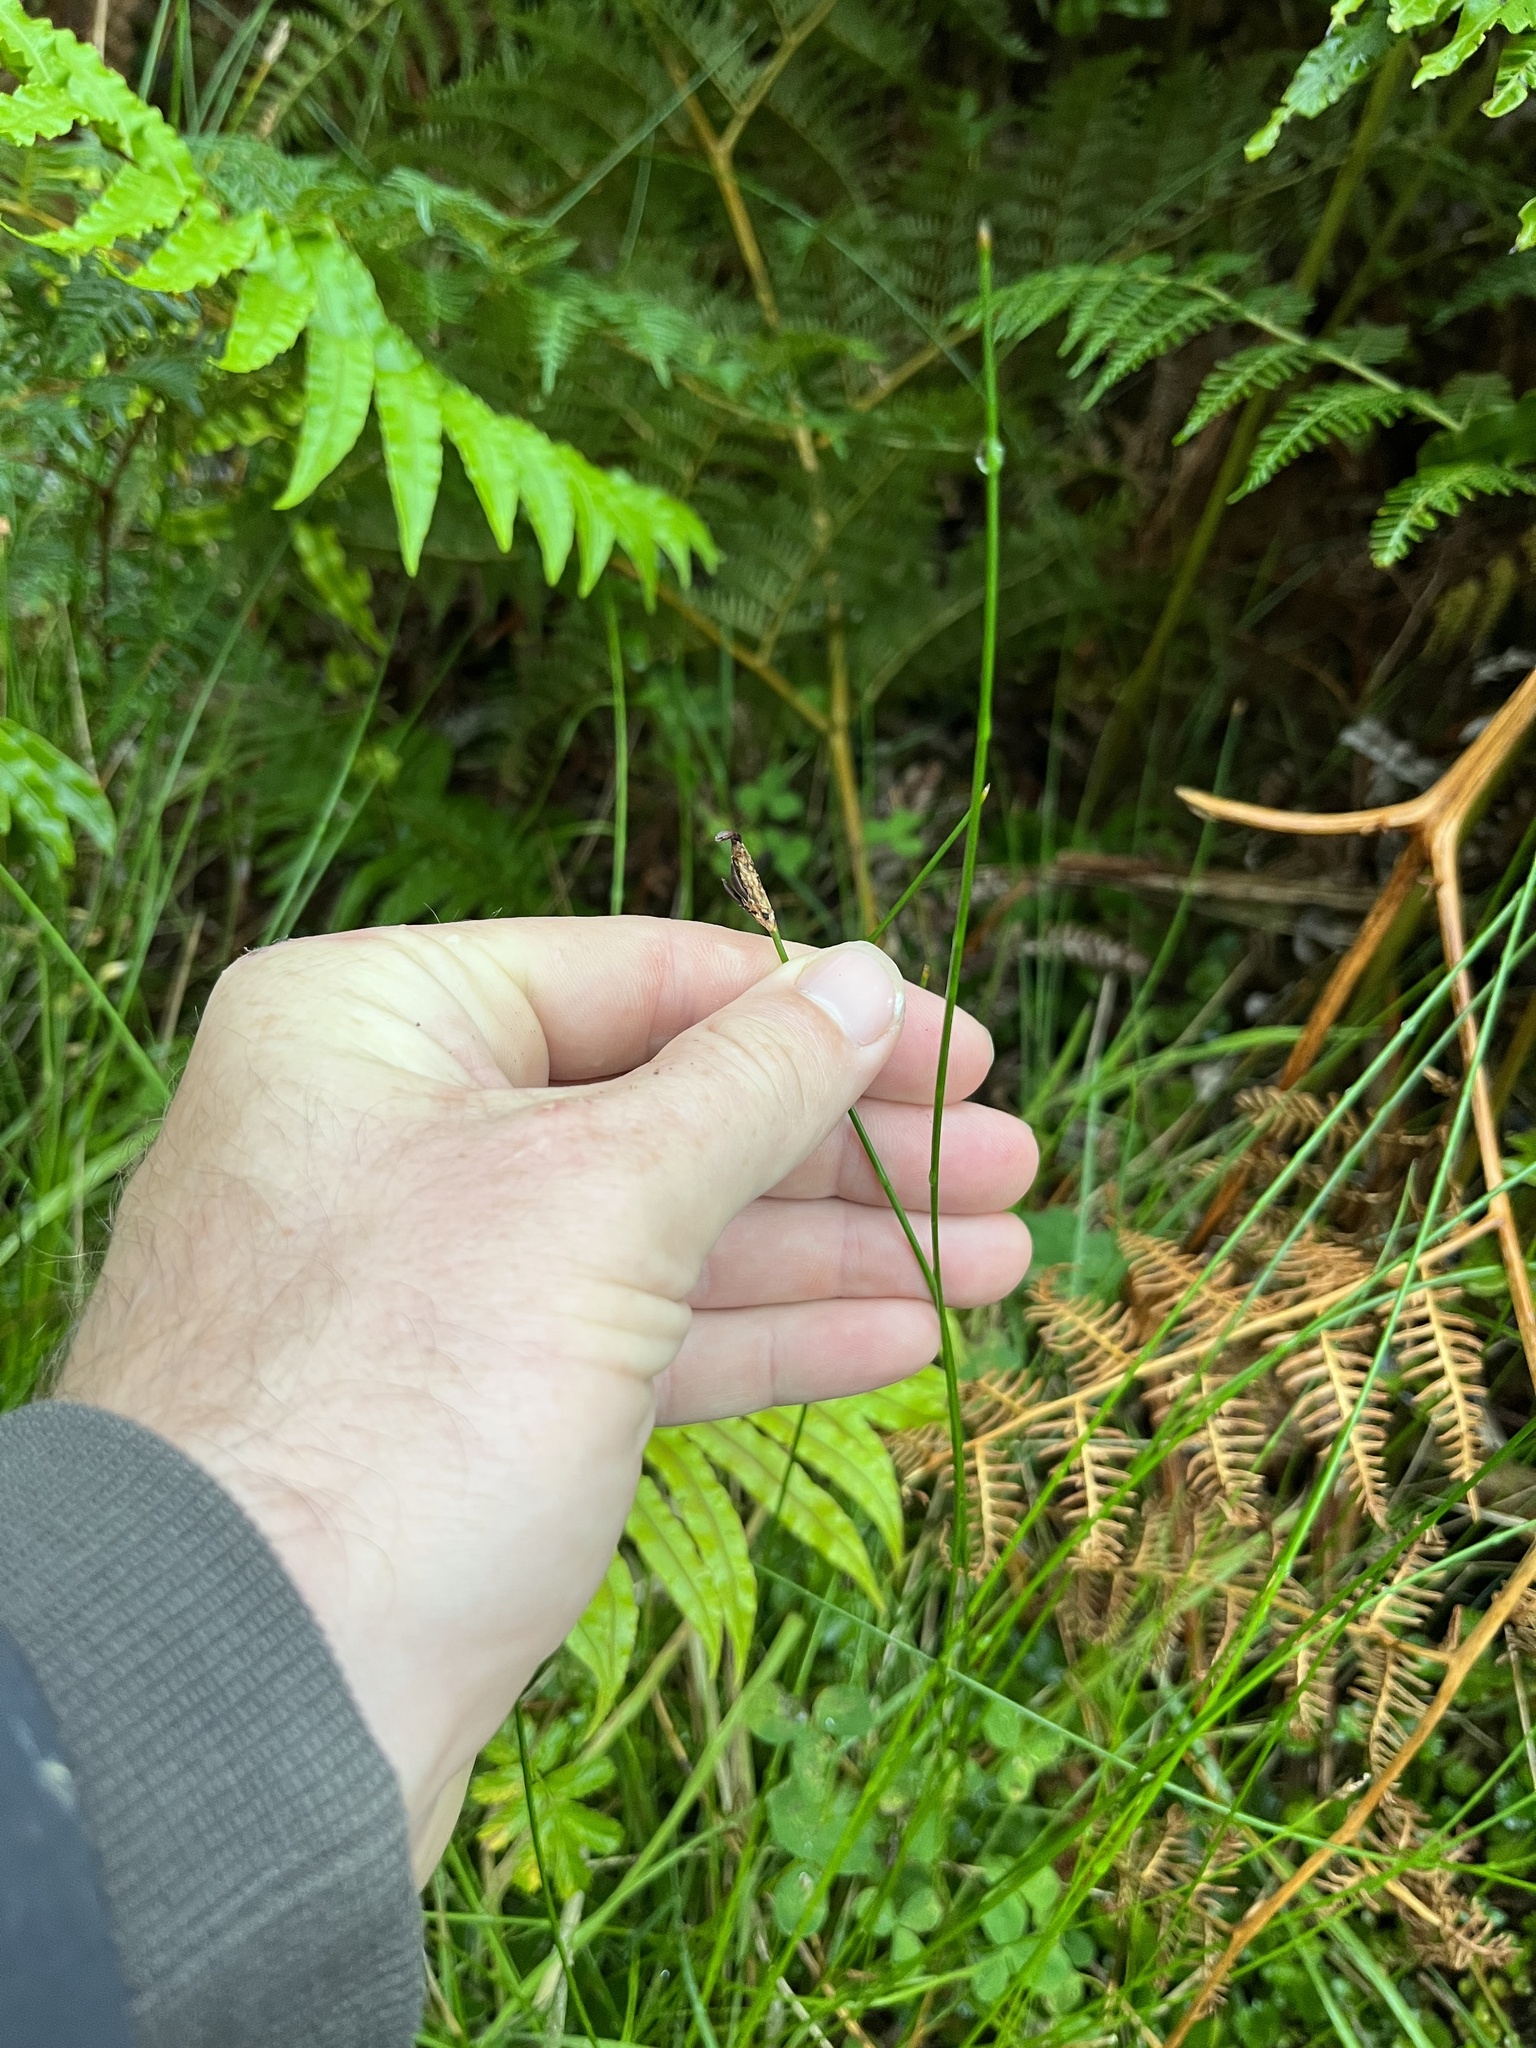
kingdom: Plantae
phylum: Tracheophyta
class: Liliopsida
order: Poales
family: Cyperaceae
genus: Eleocharis
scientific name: Eleocharis acuta
